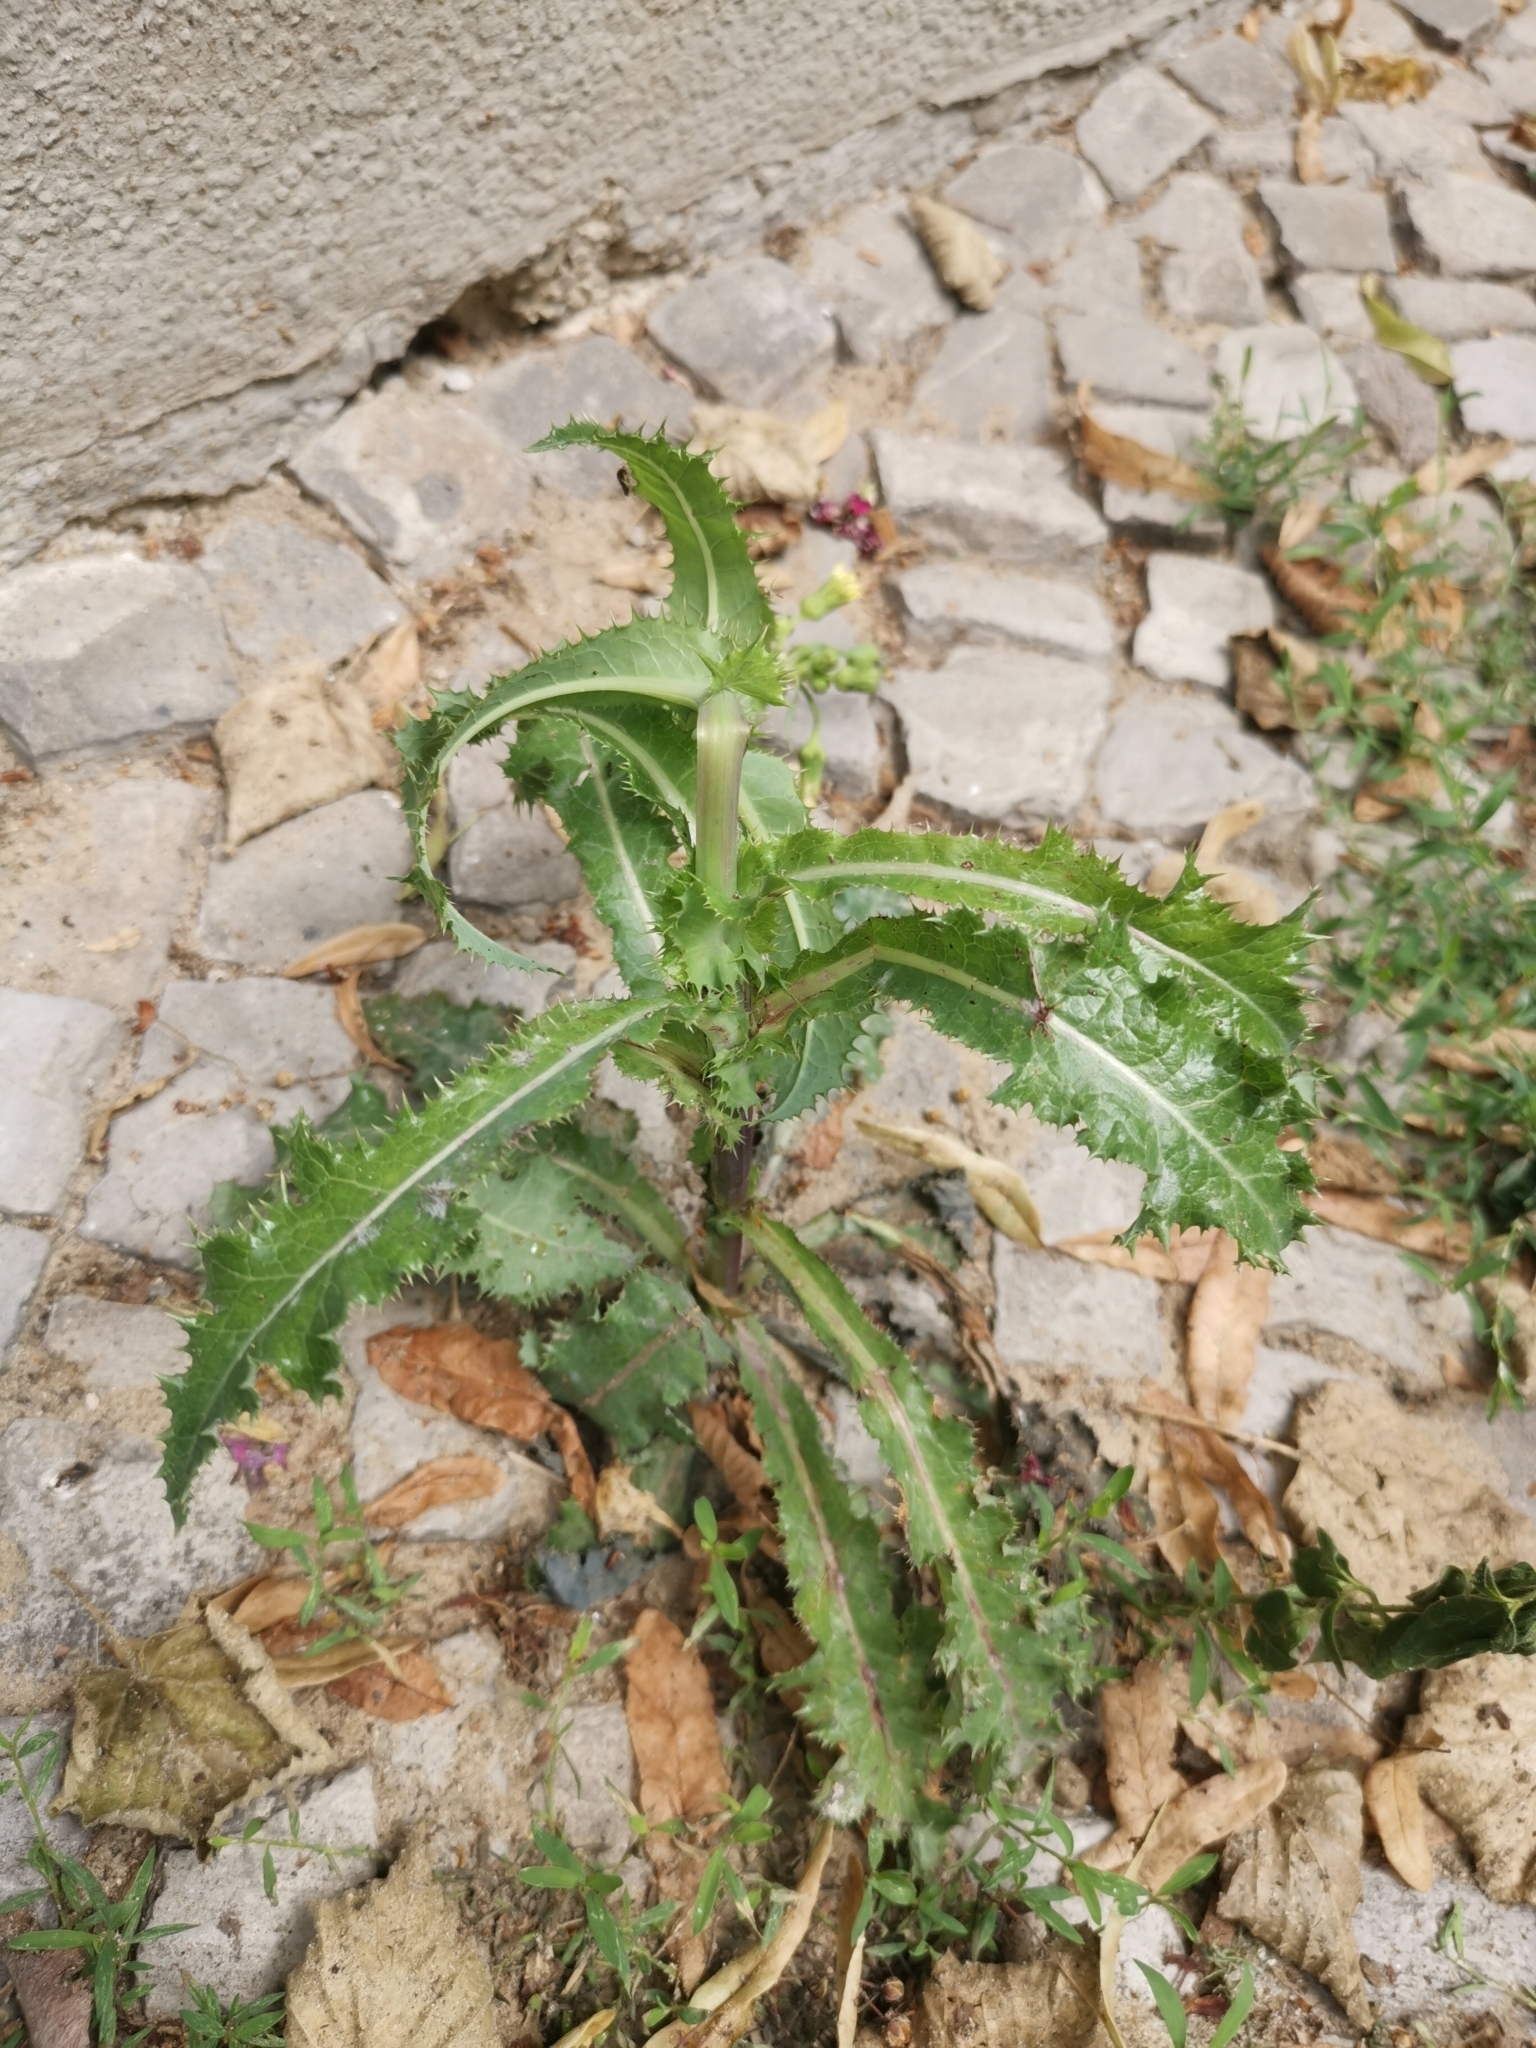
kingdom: Fungi
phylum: Ascomycota
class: Leotiomycetes
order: Helotiales
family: Erysiphaceae
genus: Golovinomyces
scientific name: Golovinomyces sonchicola
